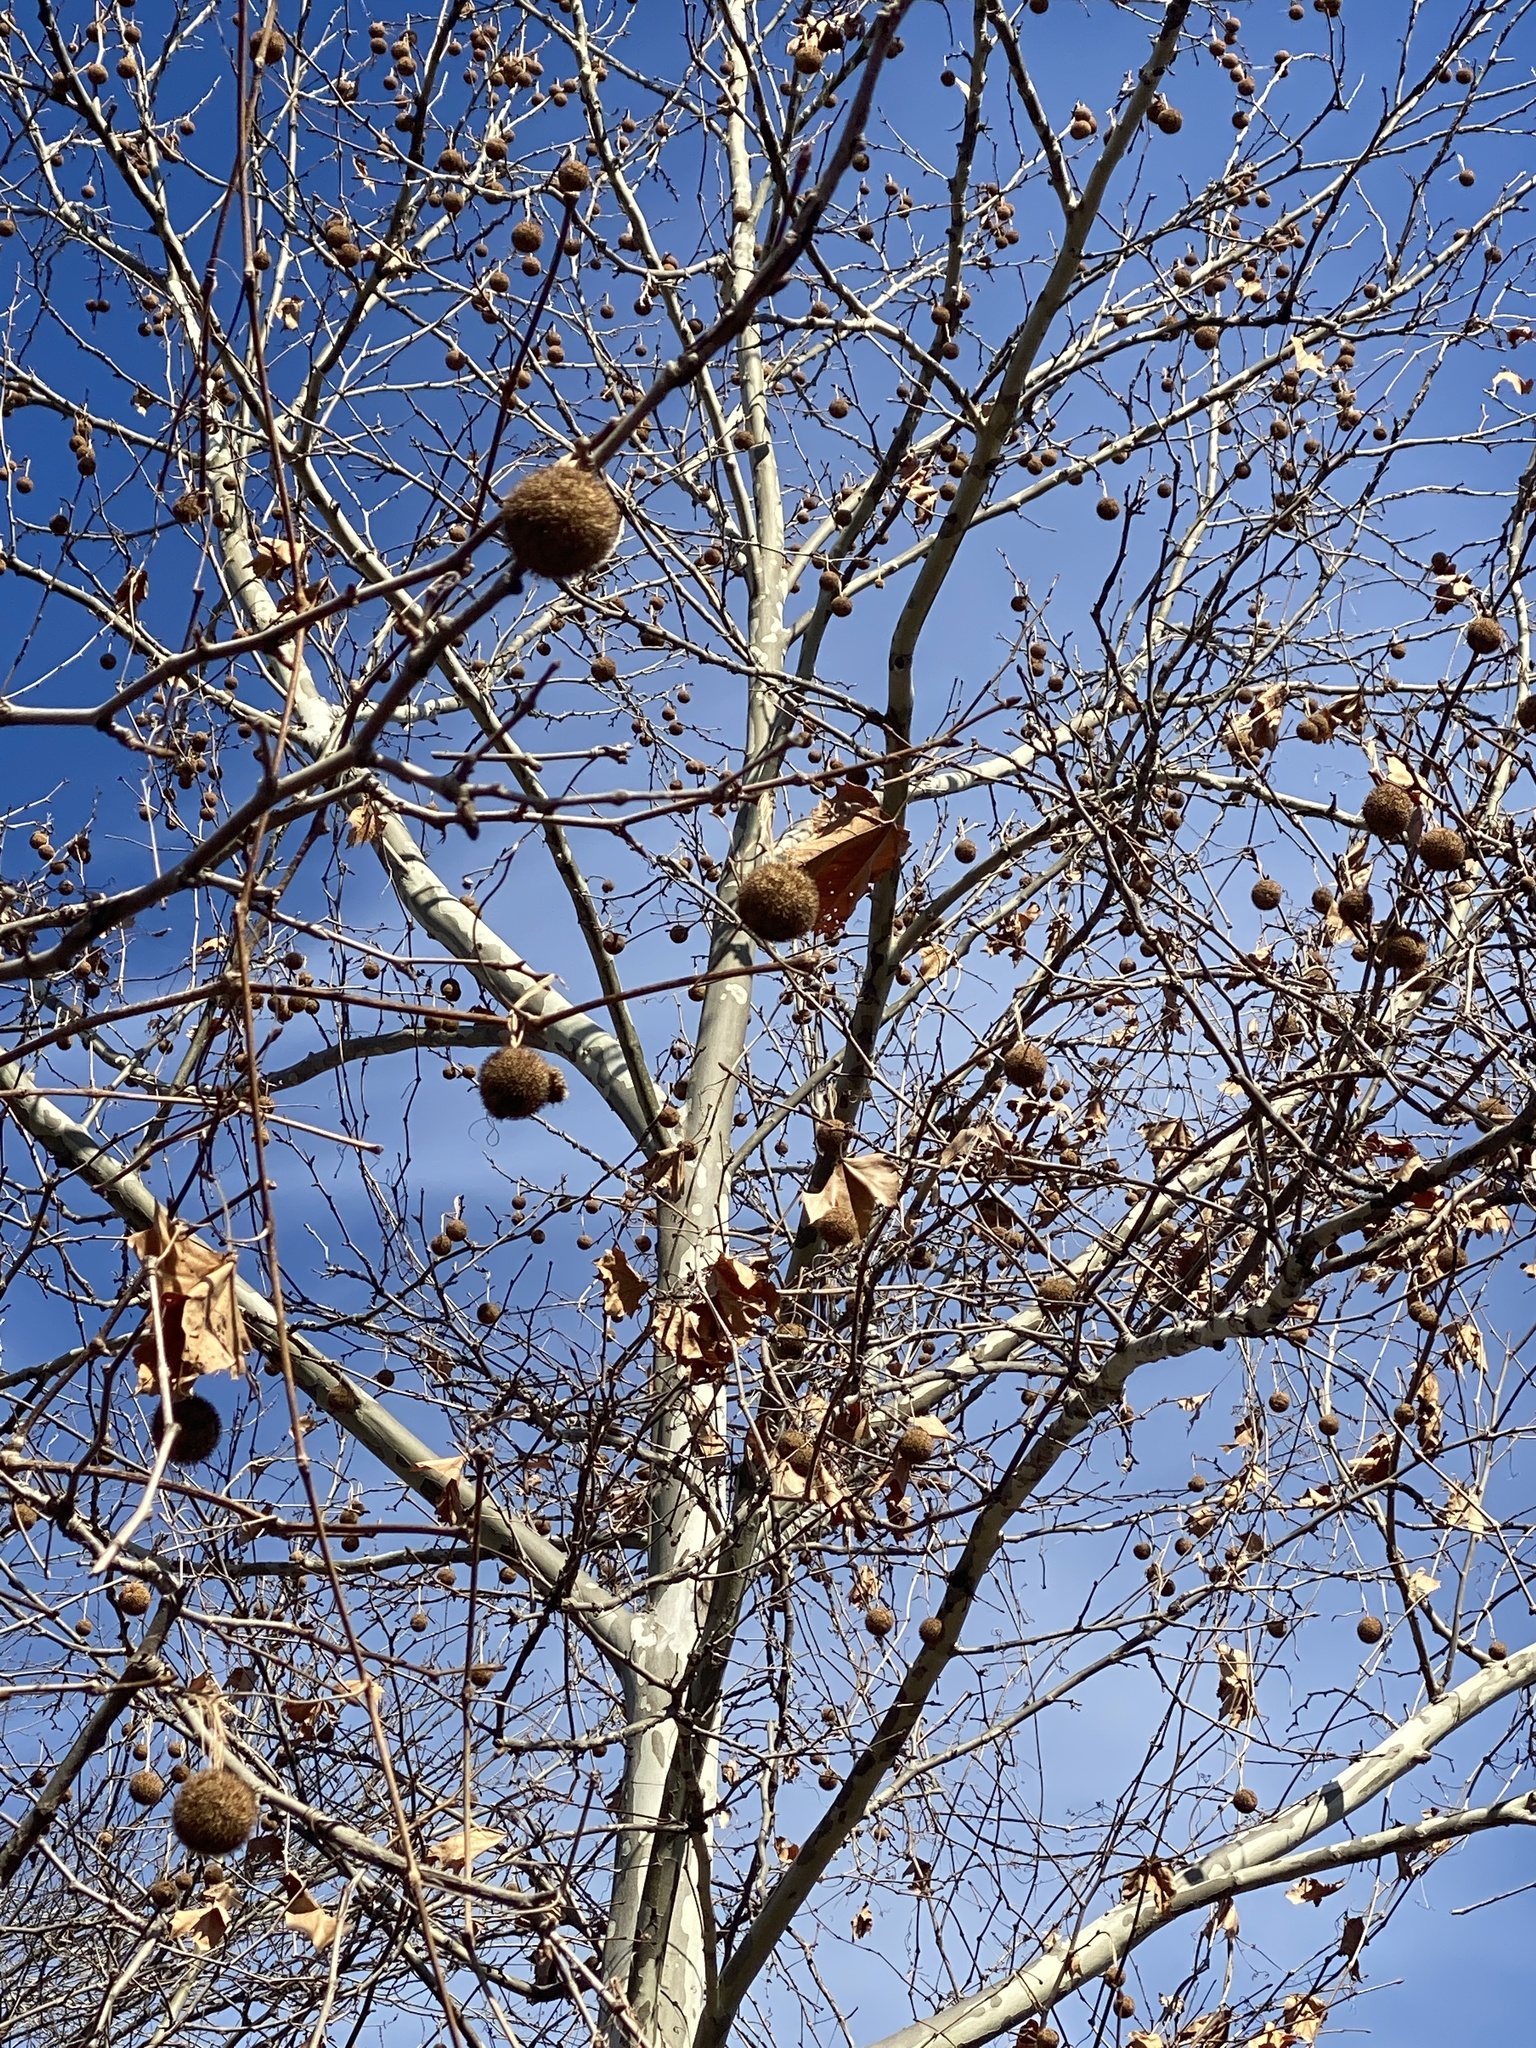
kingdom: Plantae
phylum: Tracheophyta
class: Magnoliopsida
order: Proteales
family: Platanaceae
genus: Platanus
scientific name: Platanus occidentalis
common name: American sycamore
